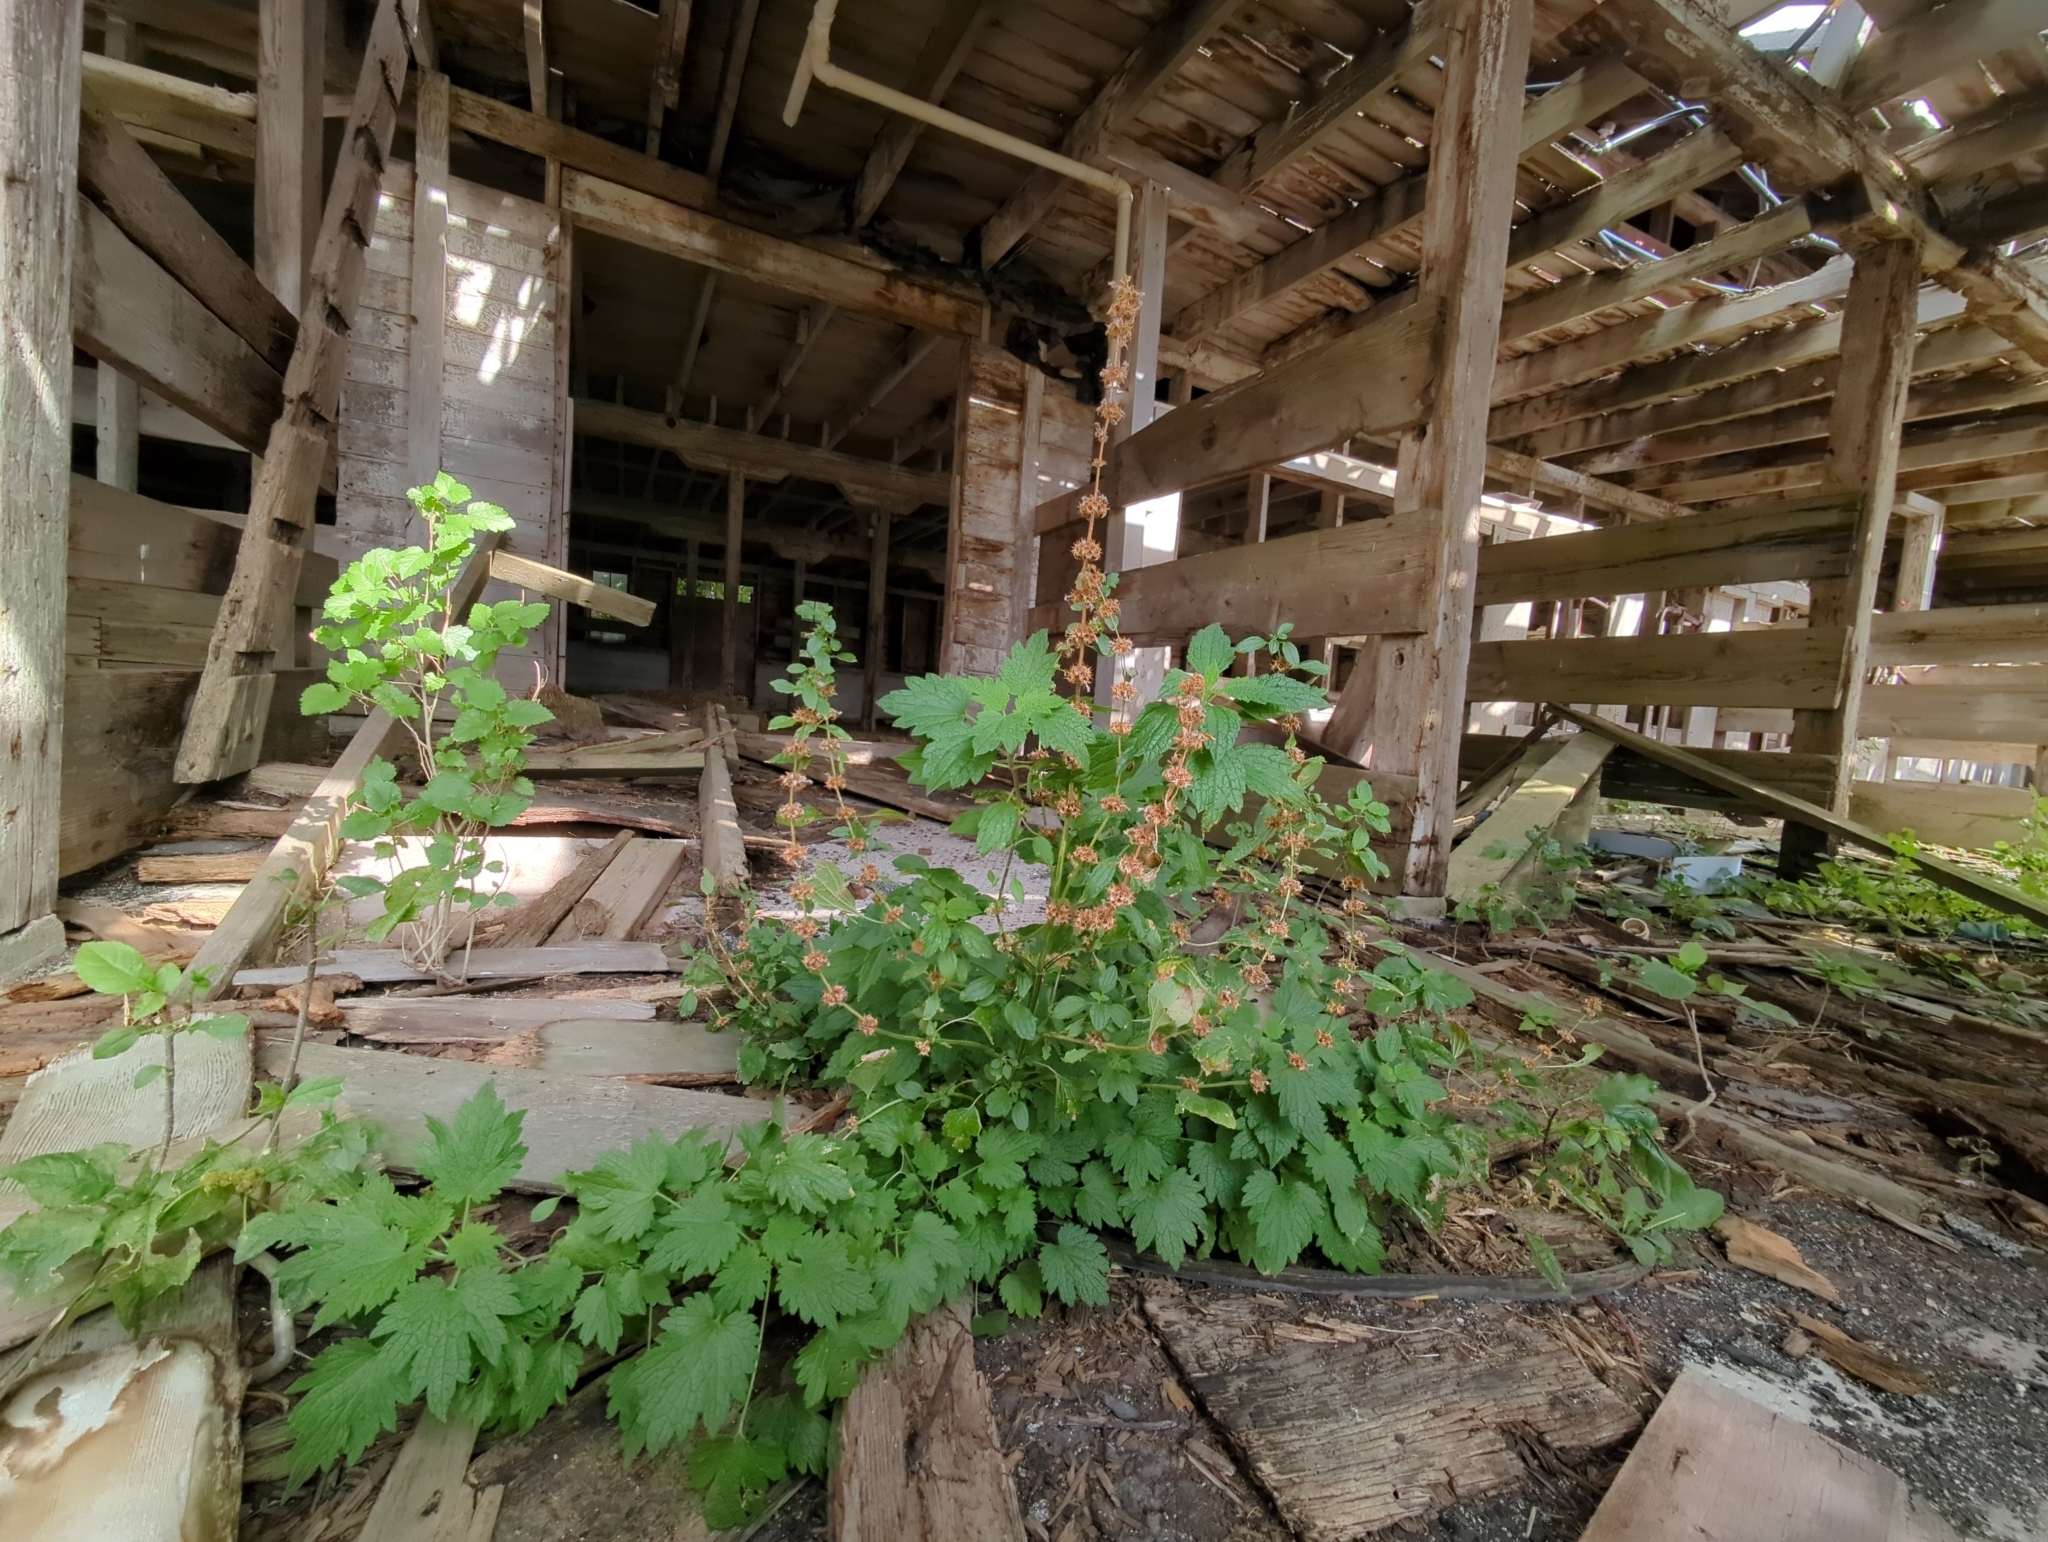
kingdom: Plantae
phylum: Tracheophyta
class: Magnoliopsida
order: Lamiales
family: Lamiaceae
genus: Leonurus
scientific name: Leonurus cardiaca
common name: Motherwort
